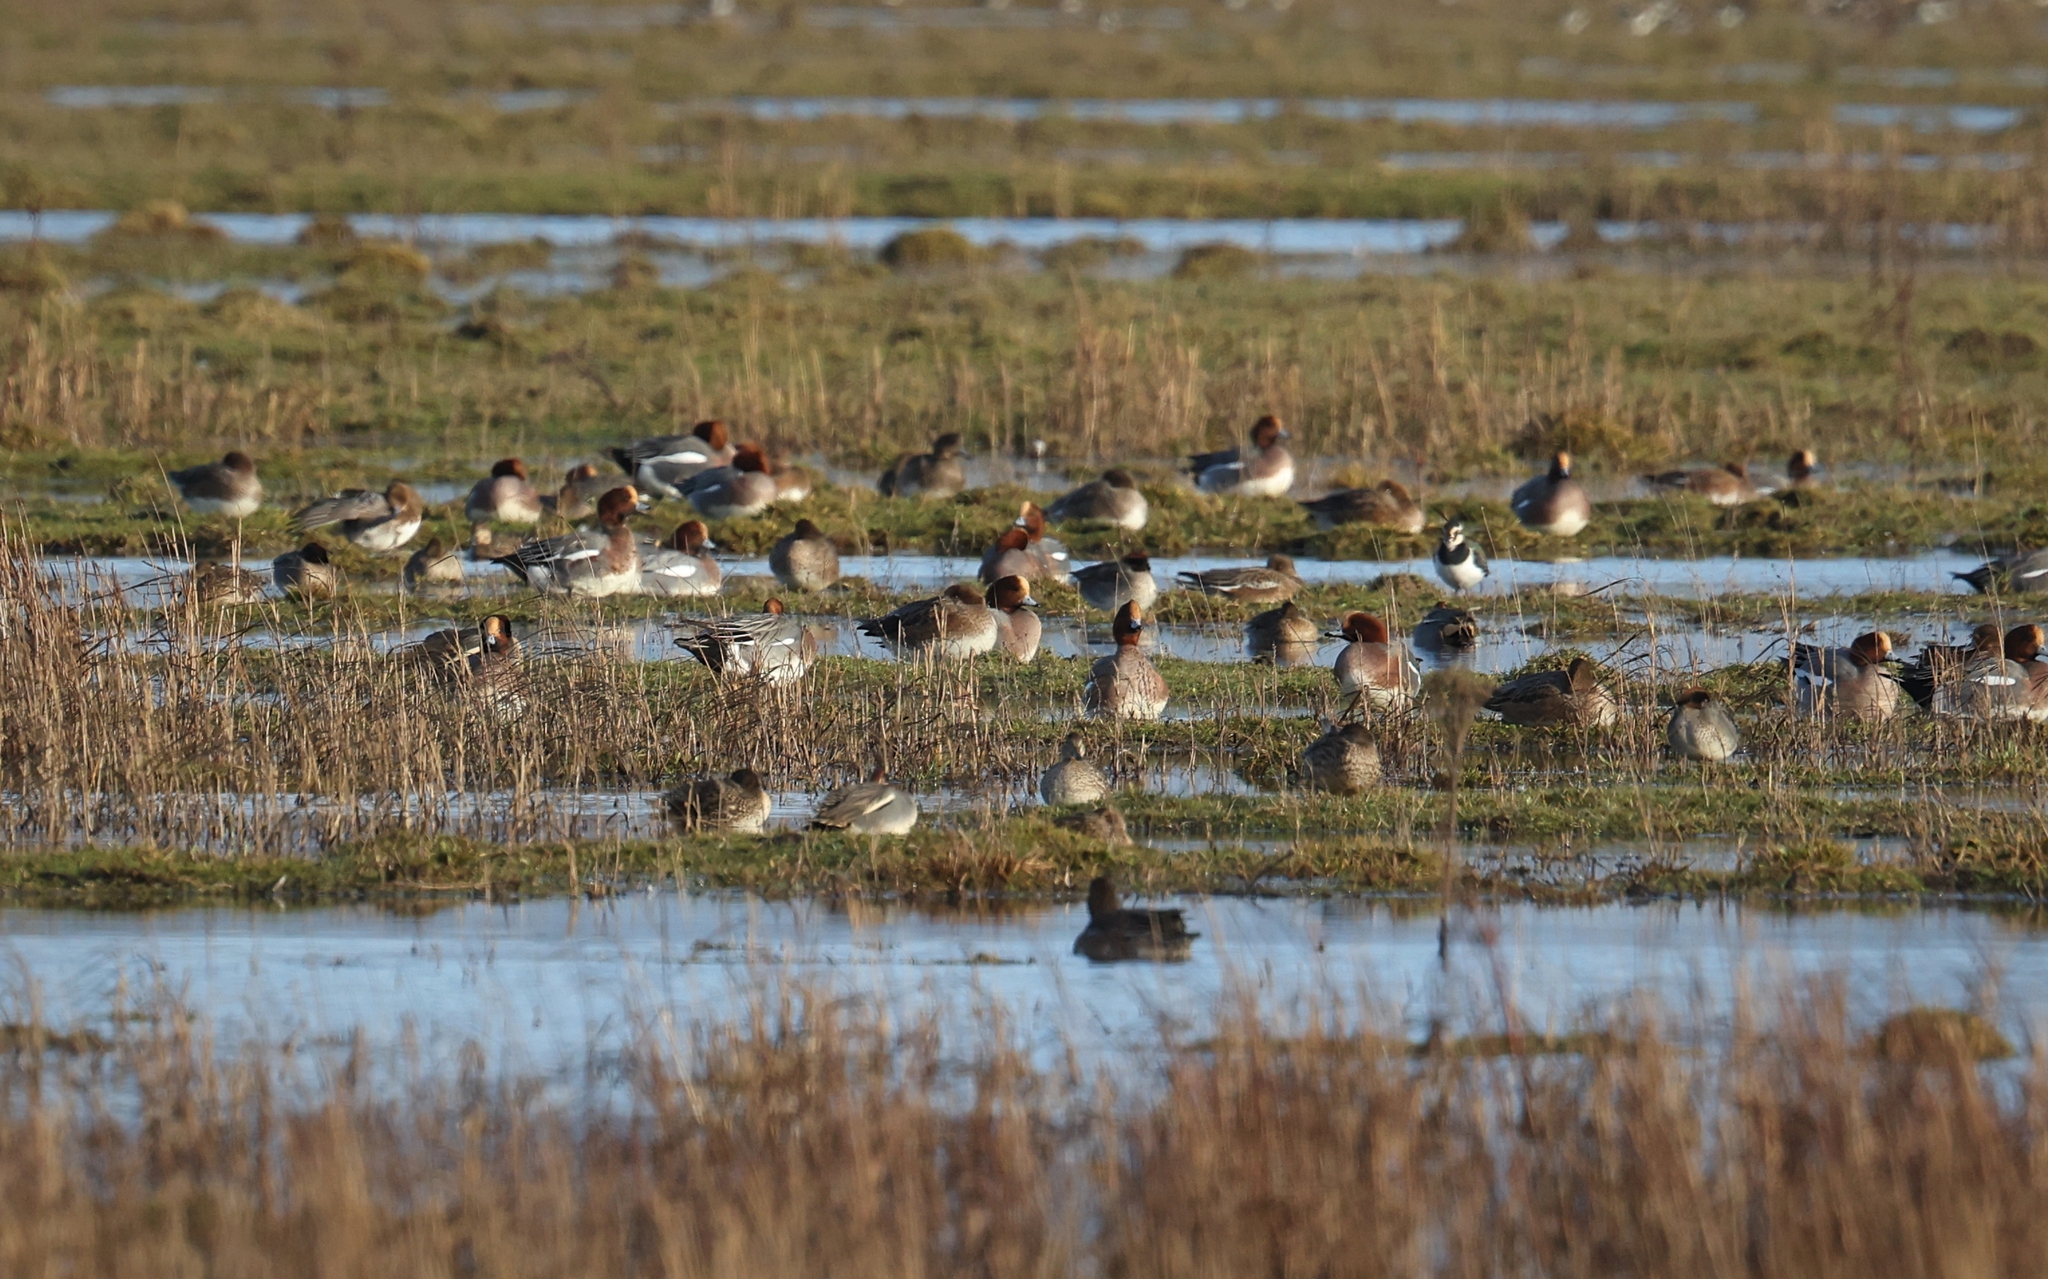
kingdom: Animalia
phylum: Chordata
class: Aves
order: Anseriformes
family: Anatidae
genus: Mareca
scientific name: Mareca penelope
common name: Eurasian wigeon
